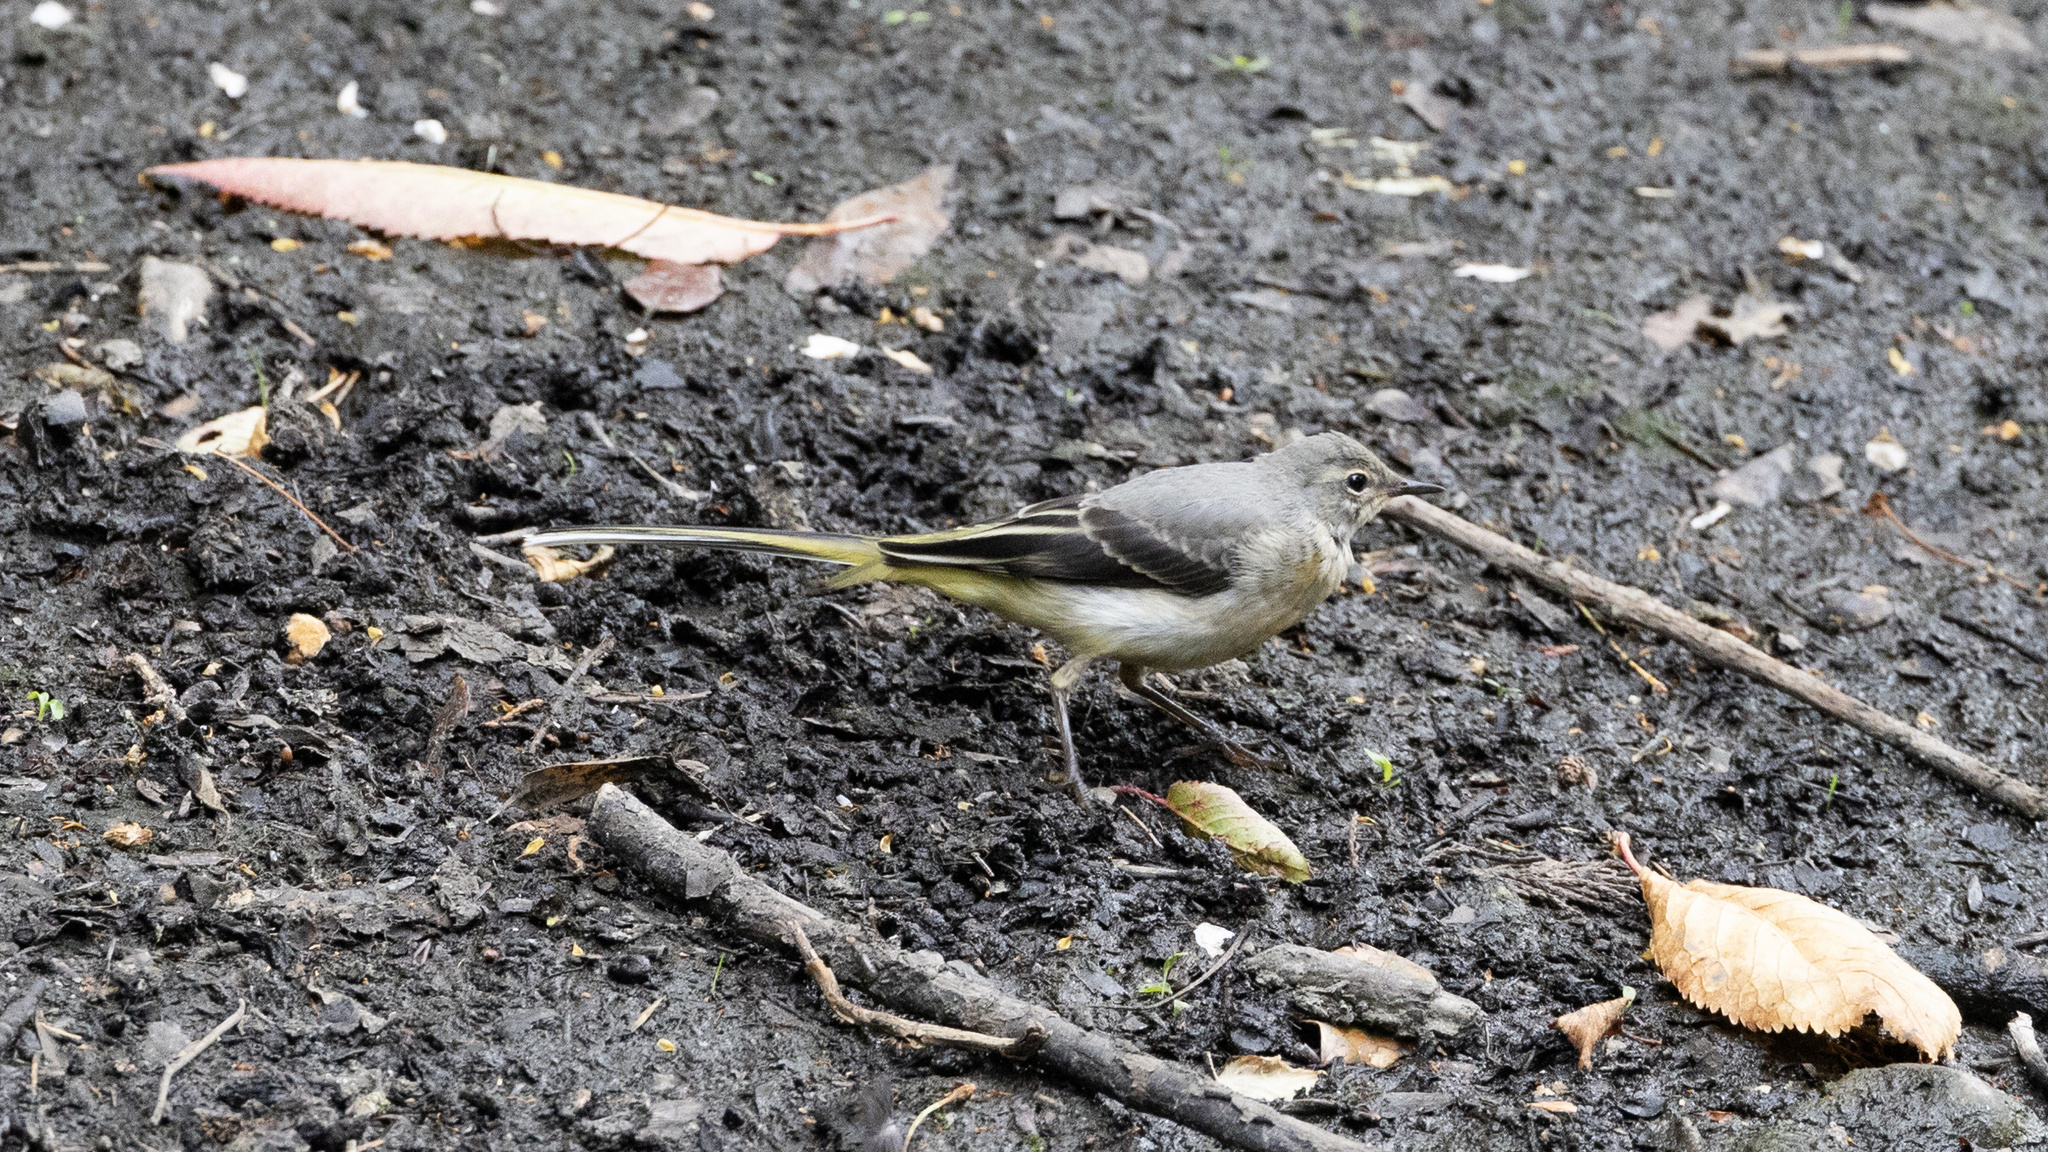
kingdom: Animalia
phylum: Chordata
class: Aves
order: Passeriformes
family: Motacillidae
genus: Motacilla
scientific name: Motacilla cinerea
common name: Grey wagtail
